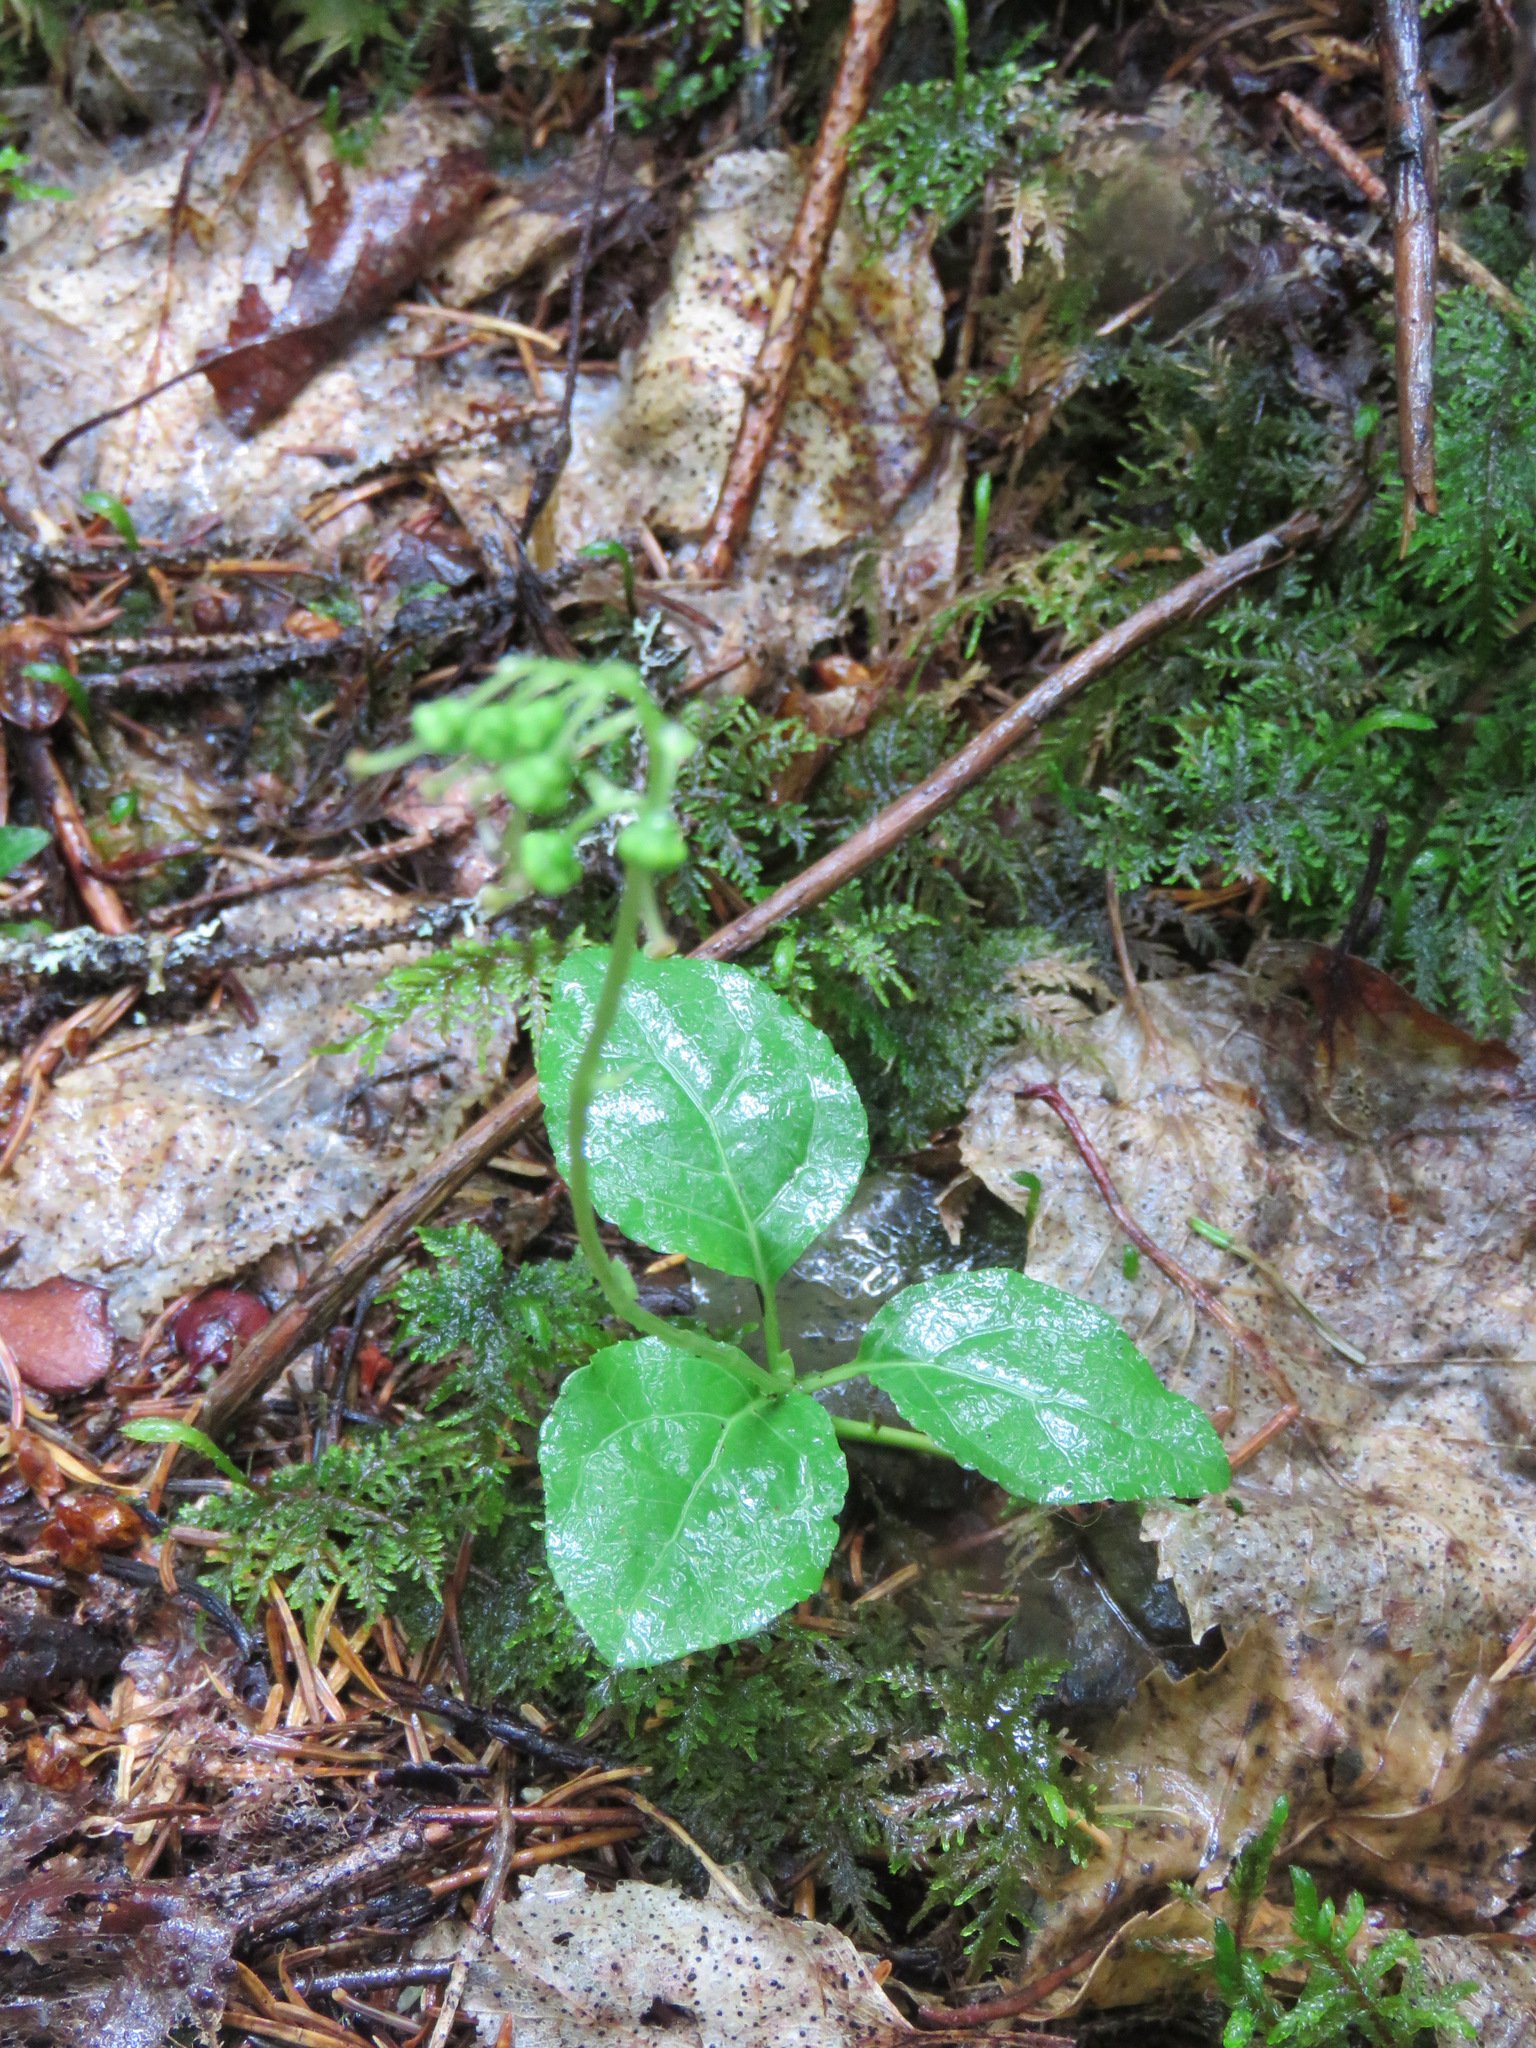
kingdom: Plantae
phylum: Tracheophyta
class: Magnoliopsida
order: Ericales
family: Ericaceae
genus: Orthilia
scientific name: Orthilia secunda
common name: One-sided orthilia
